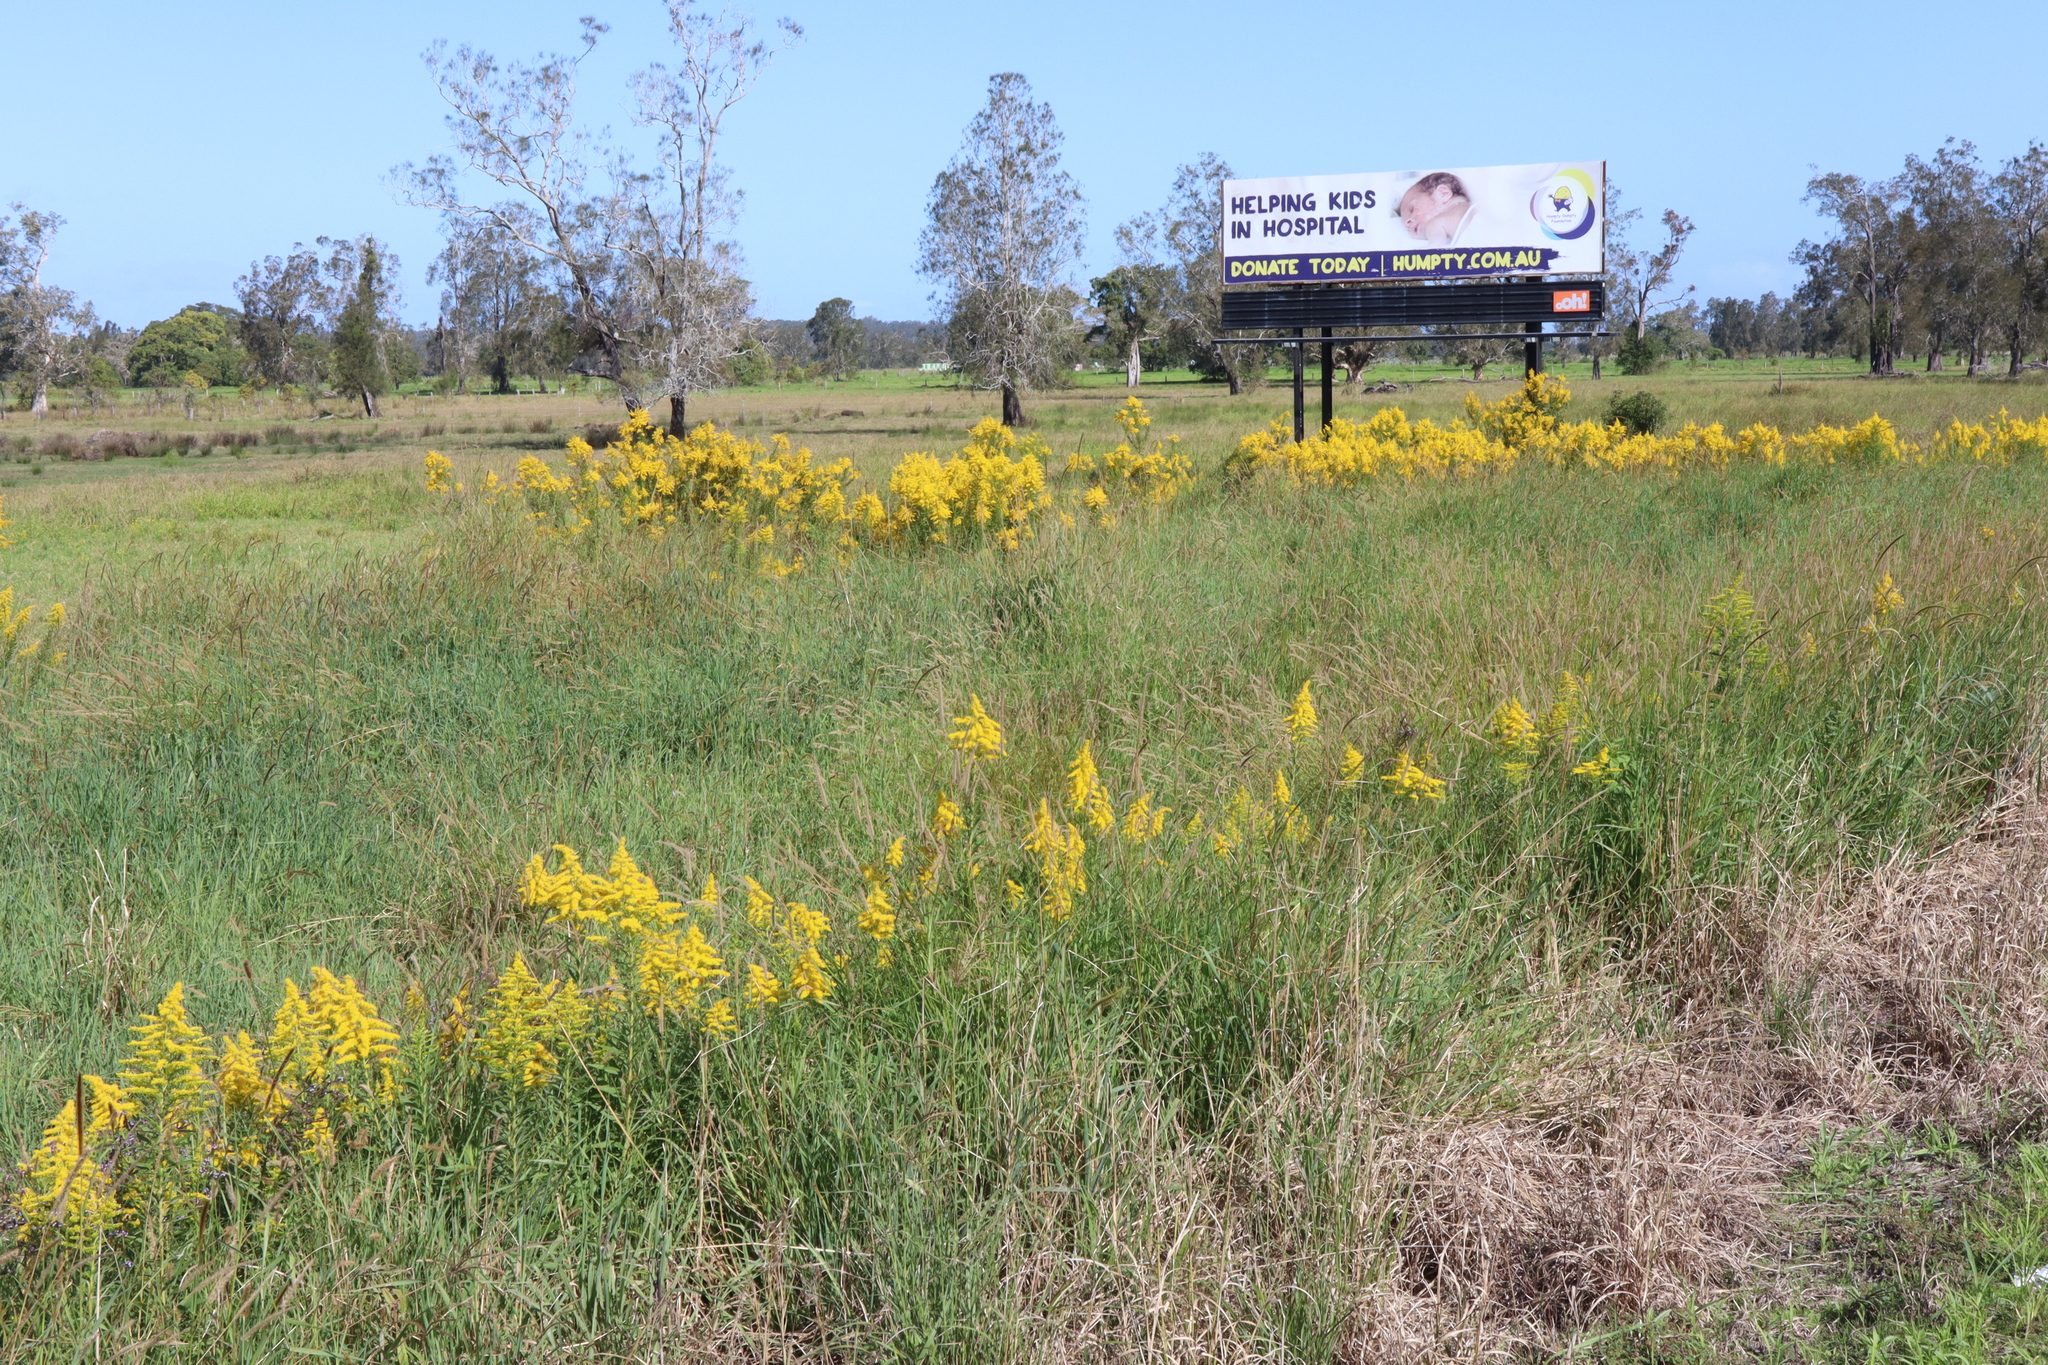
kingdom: Plantae
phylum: Tracheophyta
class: Magnoliopsida
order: Asterales
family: Asteraceae
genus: Solidago
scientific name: Solidago altissima
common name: Late goldenrod
